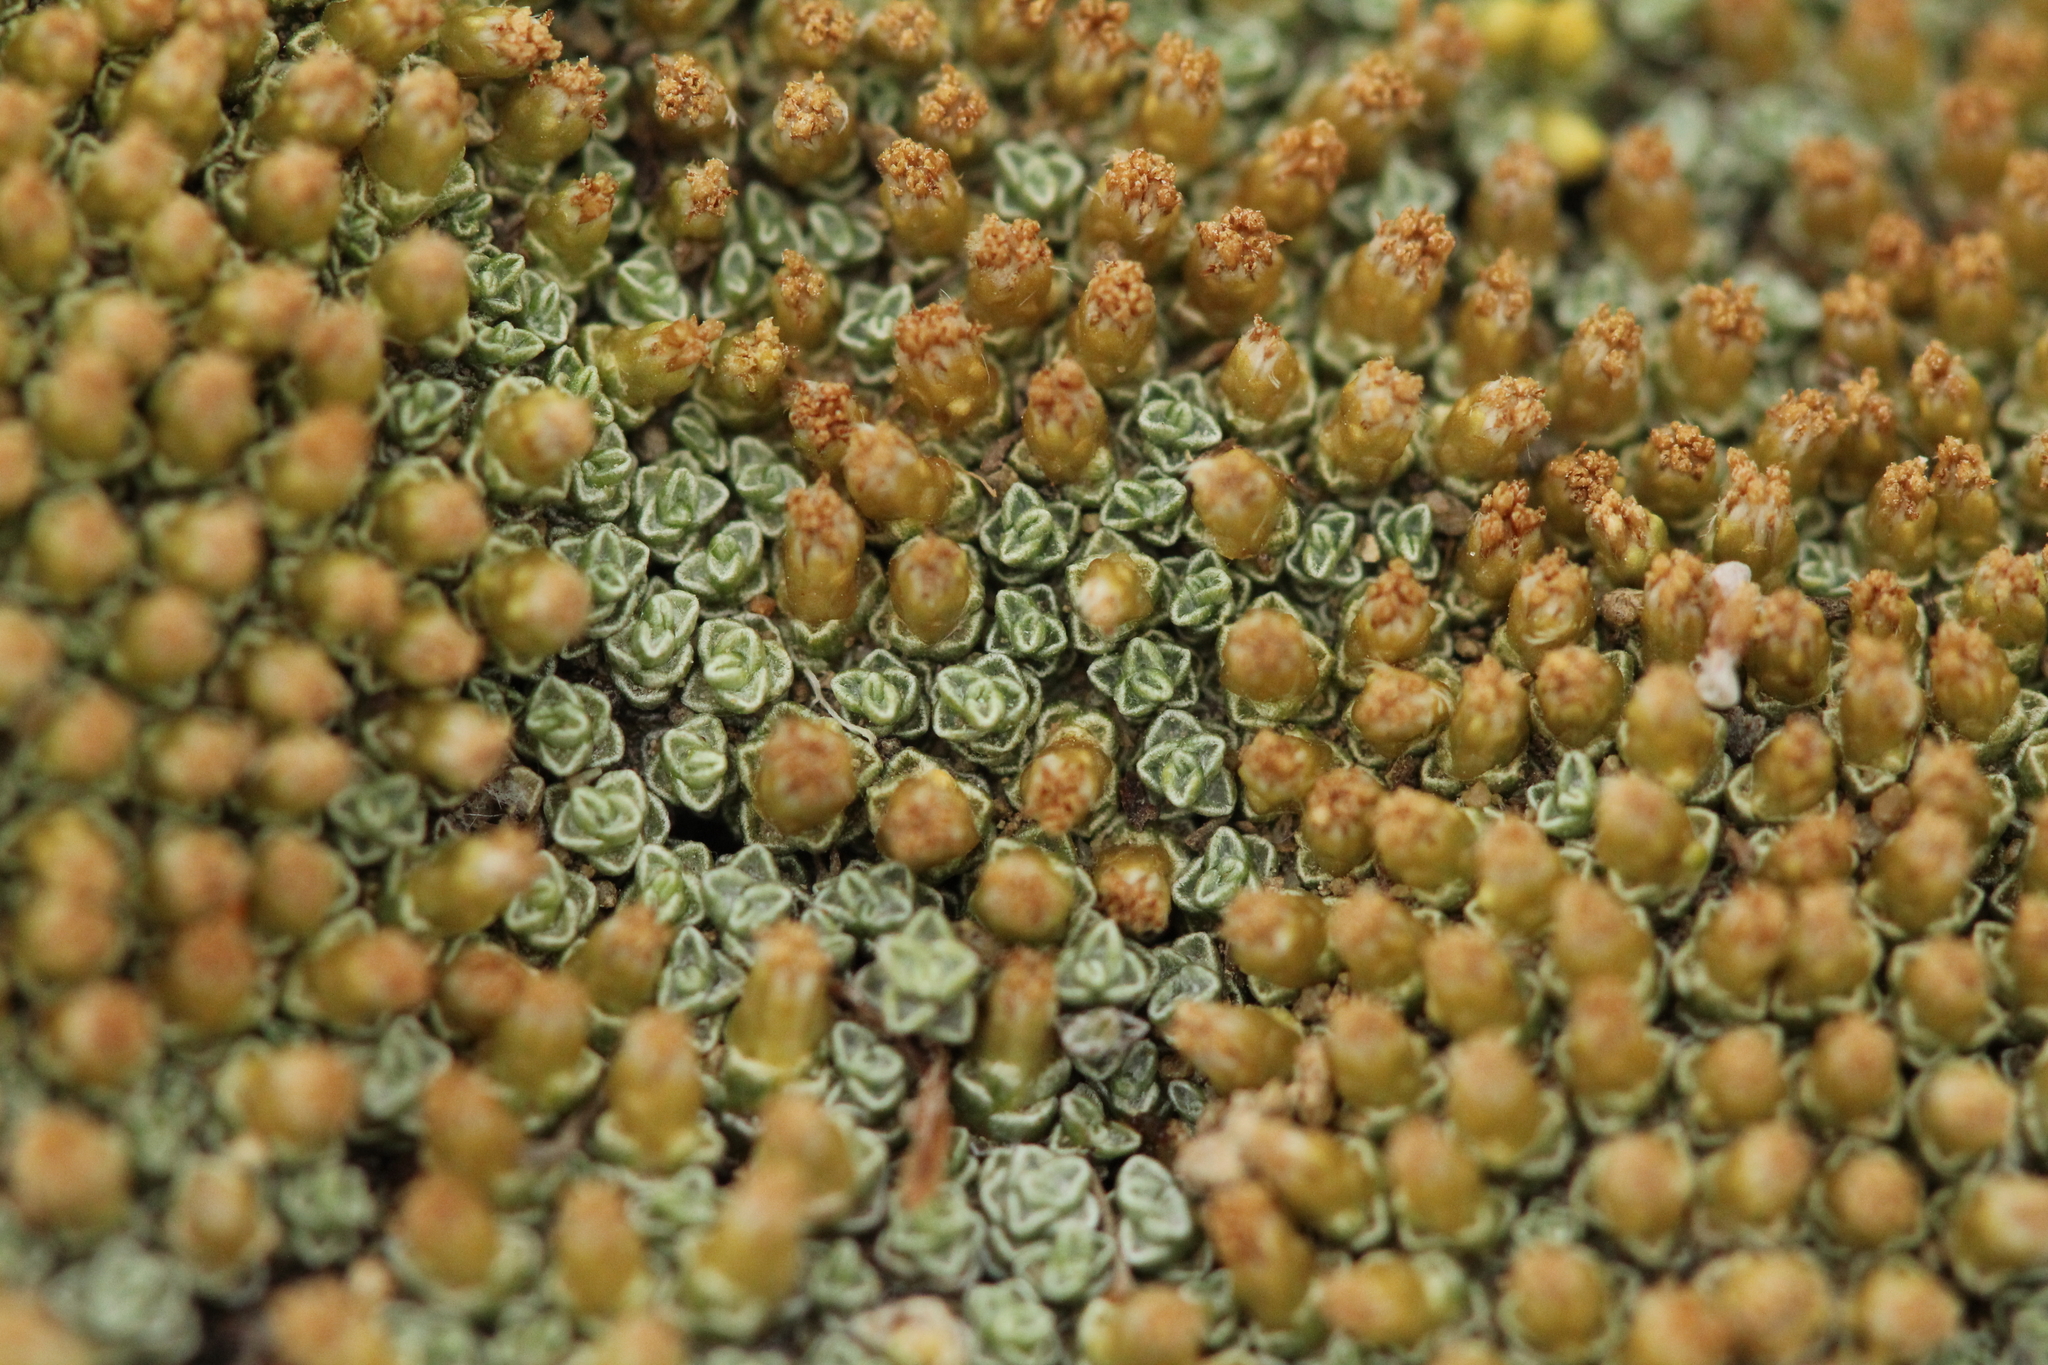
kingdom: Plantae
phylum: Tracheophyta
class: Magnoliopsida
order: Asterales
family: Asteraceae
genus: Raoulia
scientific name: Raoulia australis
